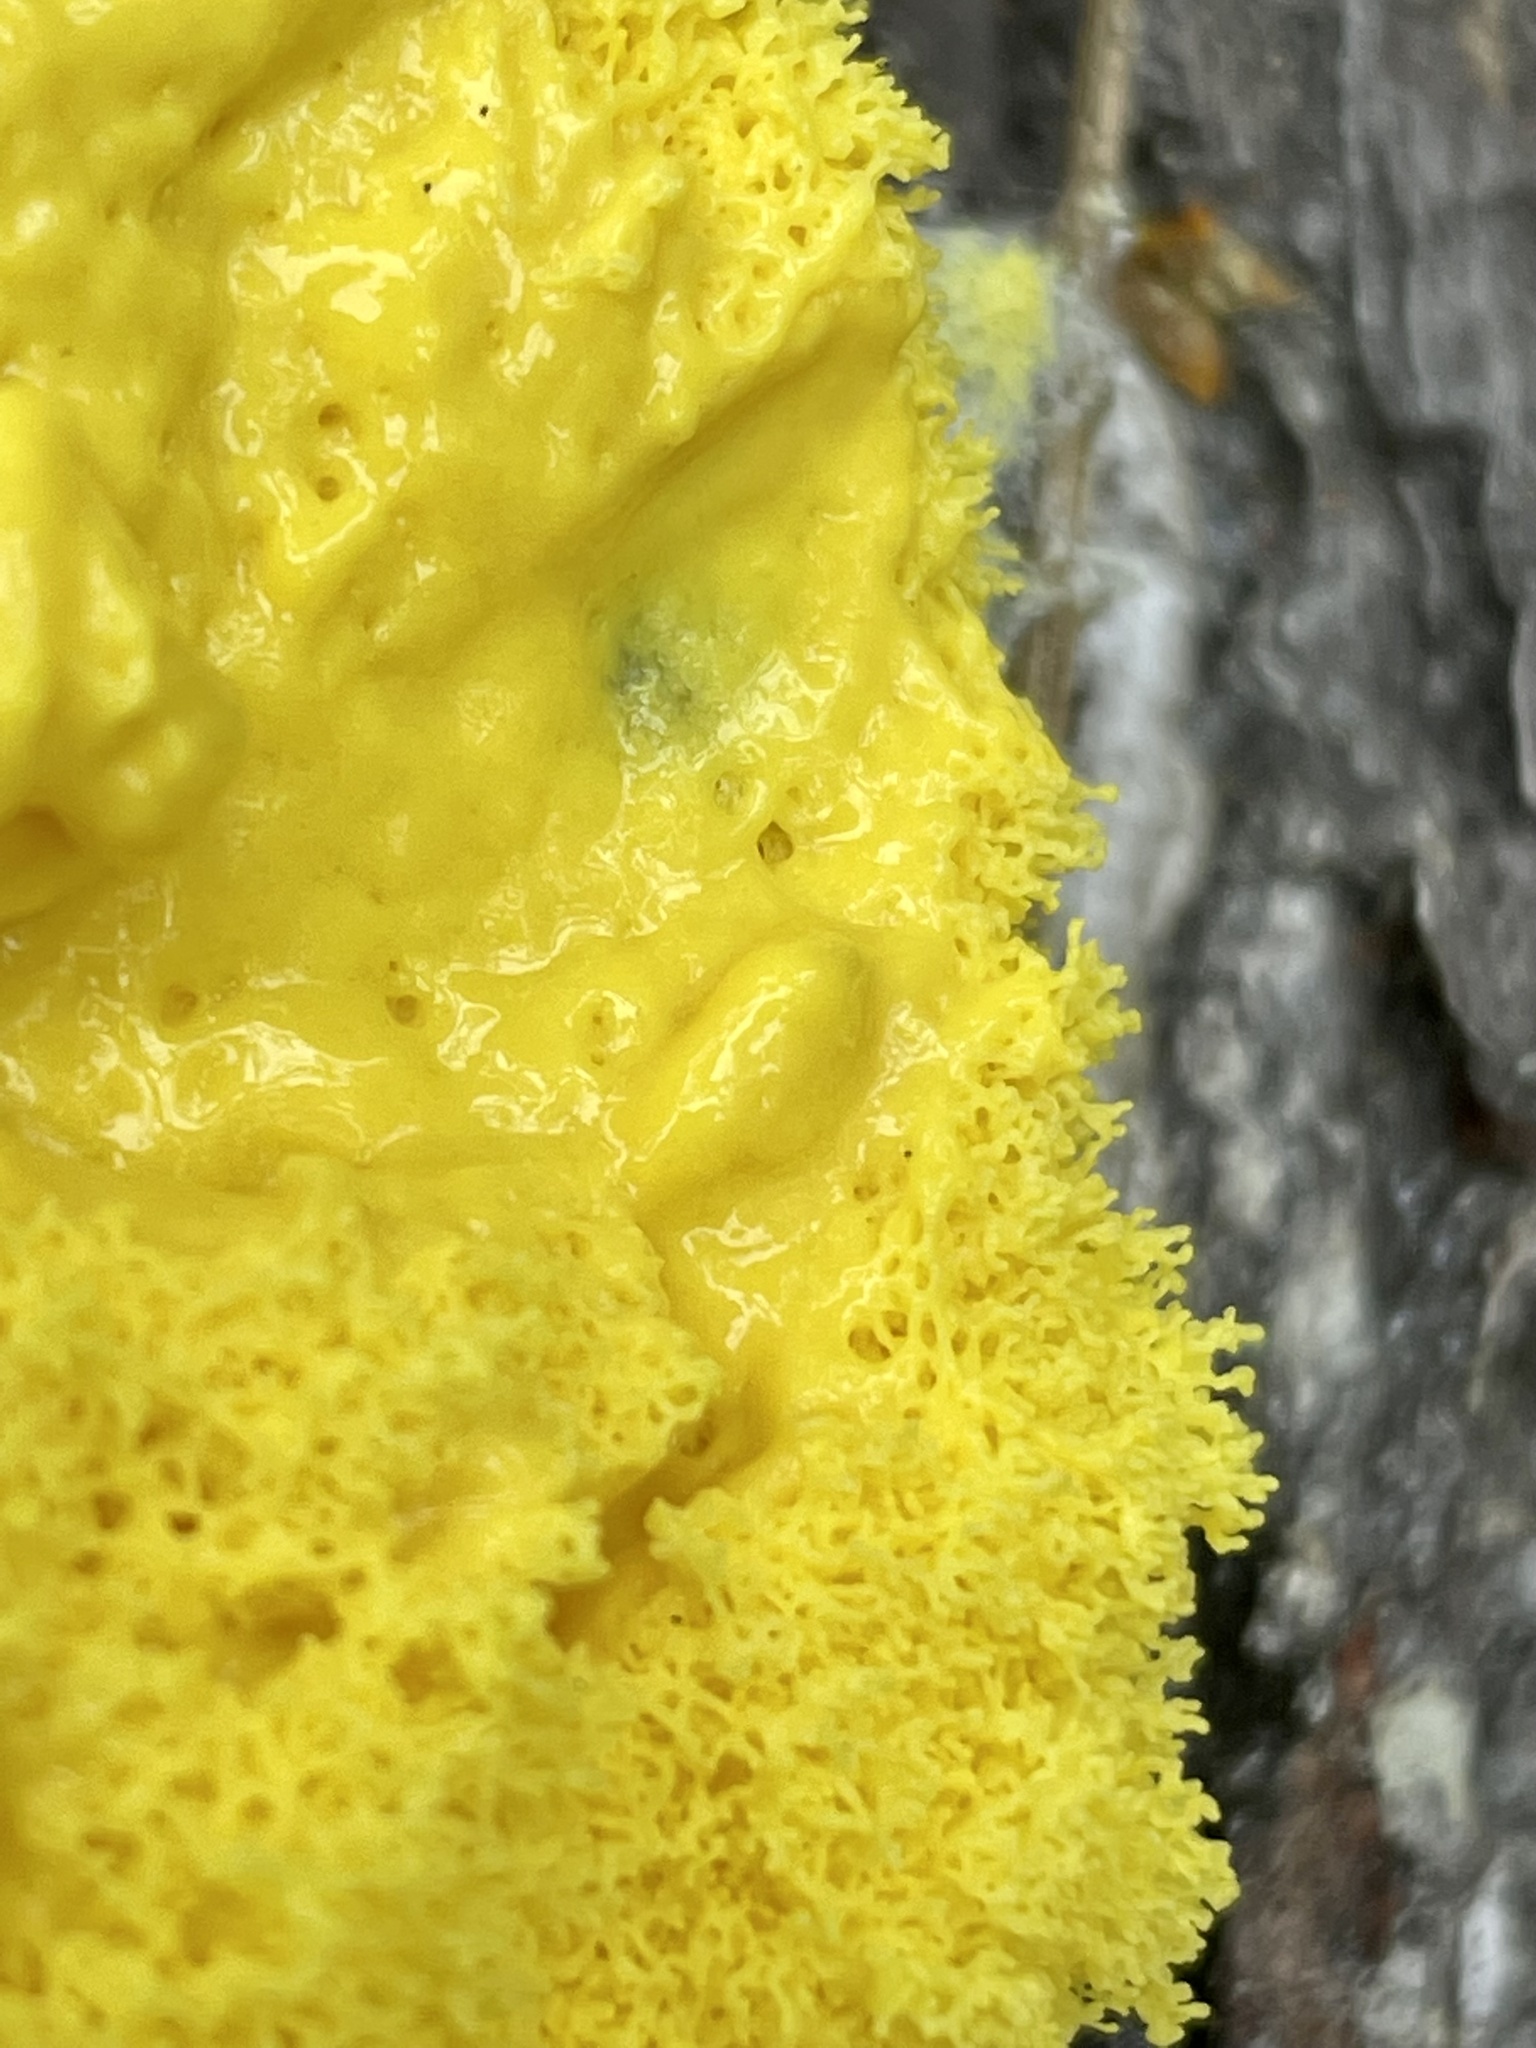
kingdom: Protozoa
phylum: Mycetozoa
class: Myxomycetes
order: Physarales
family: Physaraceae
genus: Fuligo
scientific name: Fuligo septica
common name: Dog vomit slime mold
